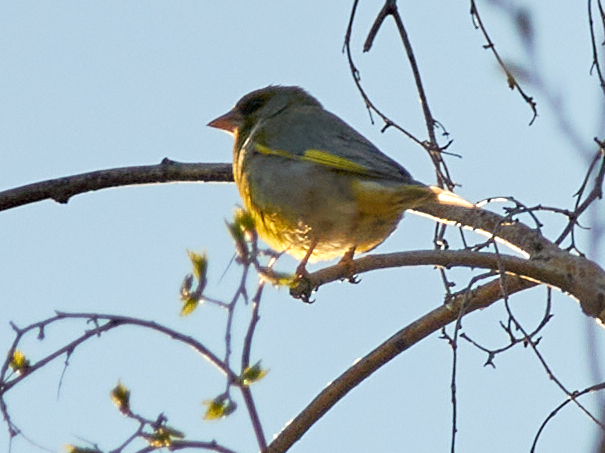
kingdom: Plantae
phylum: Tracheophyta
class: Liliopsida
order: Poales
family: Poaceae
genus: Chloris
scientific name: Chloris chloris
